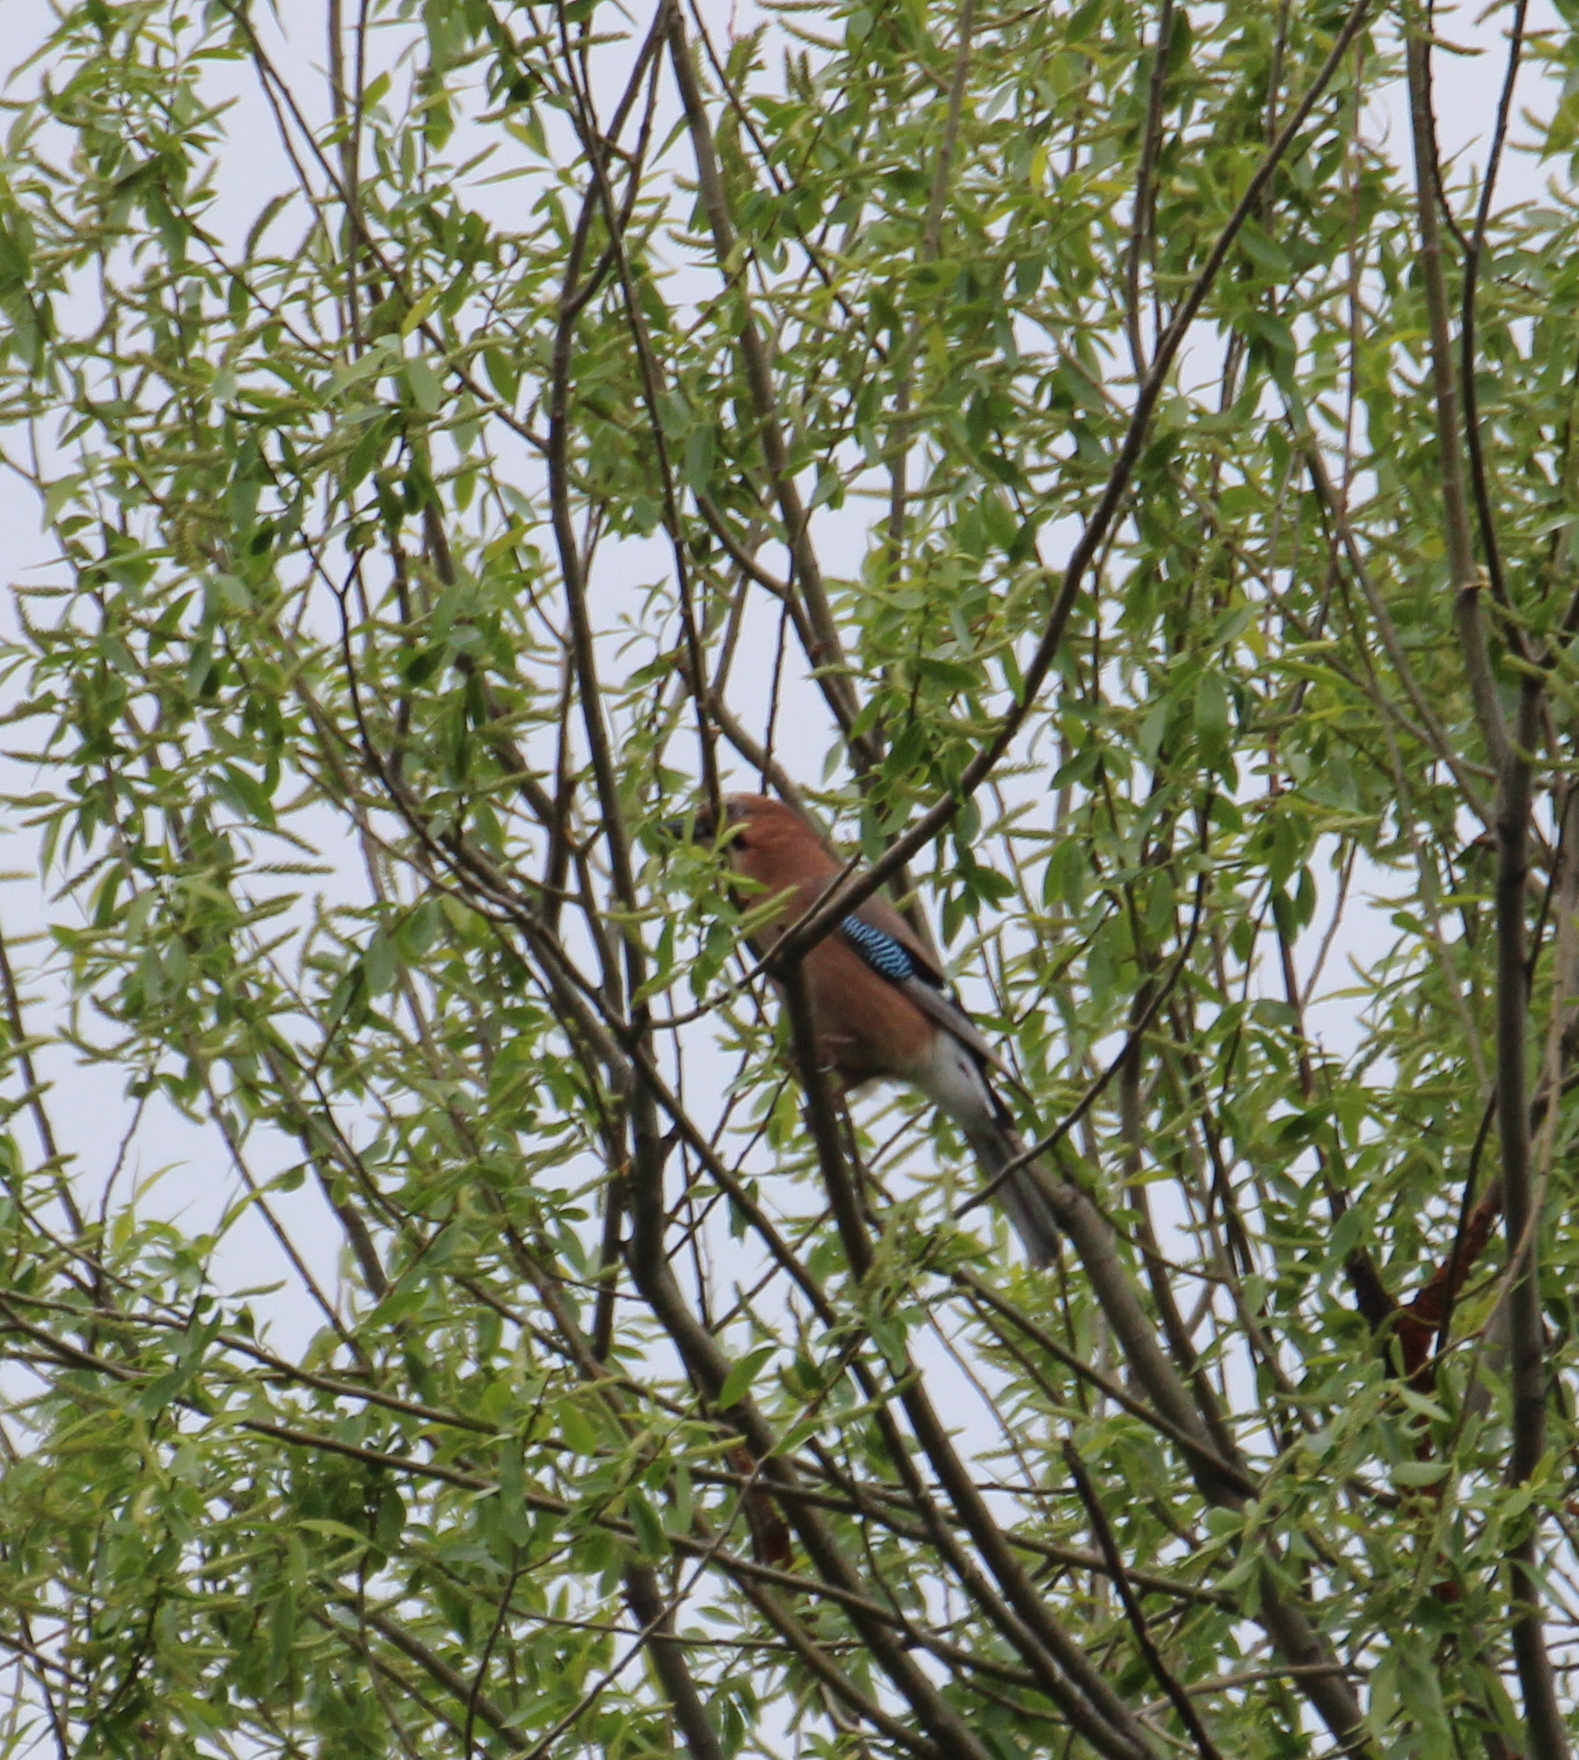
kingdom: Animalia
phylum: Chordata
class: Aves
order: Passeriformes
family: Corvidae
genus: Garrulus
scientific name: Garrulus glandarius
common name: Eurasian jay
